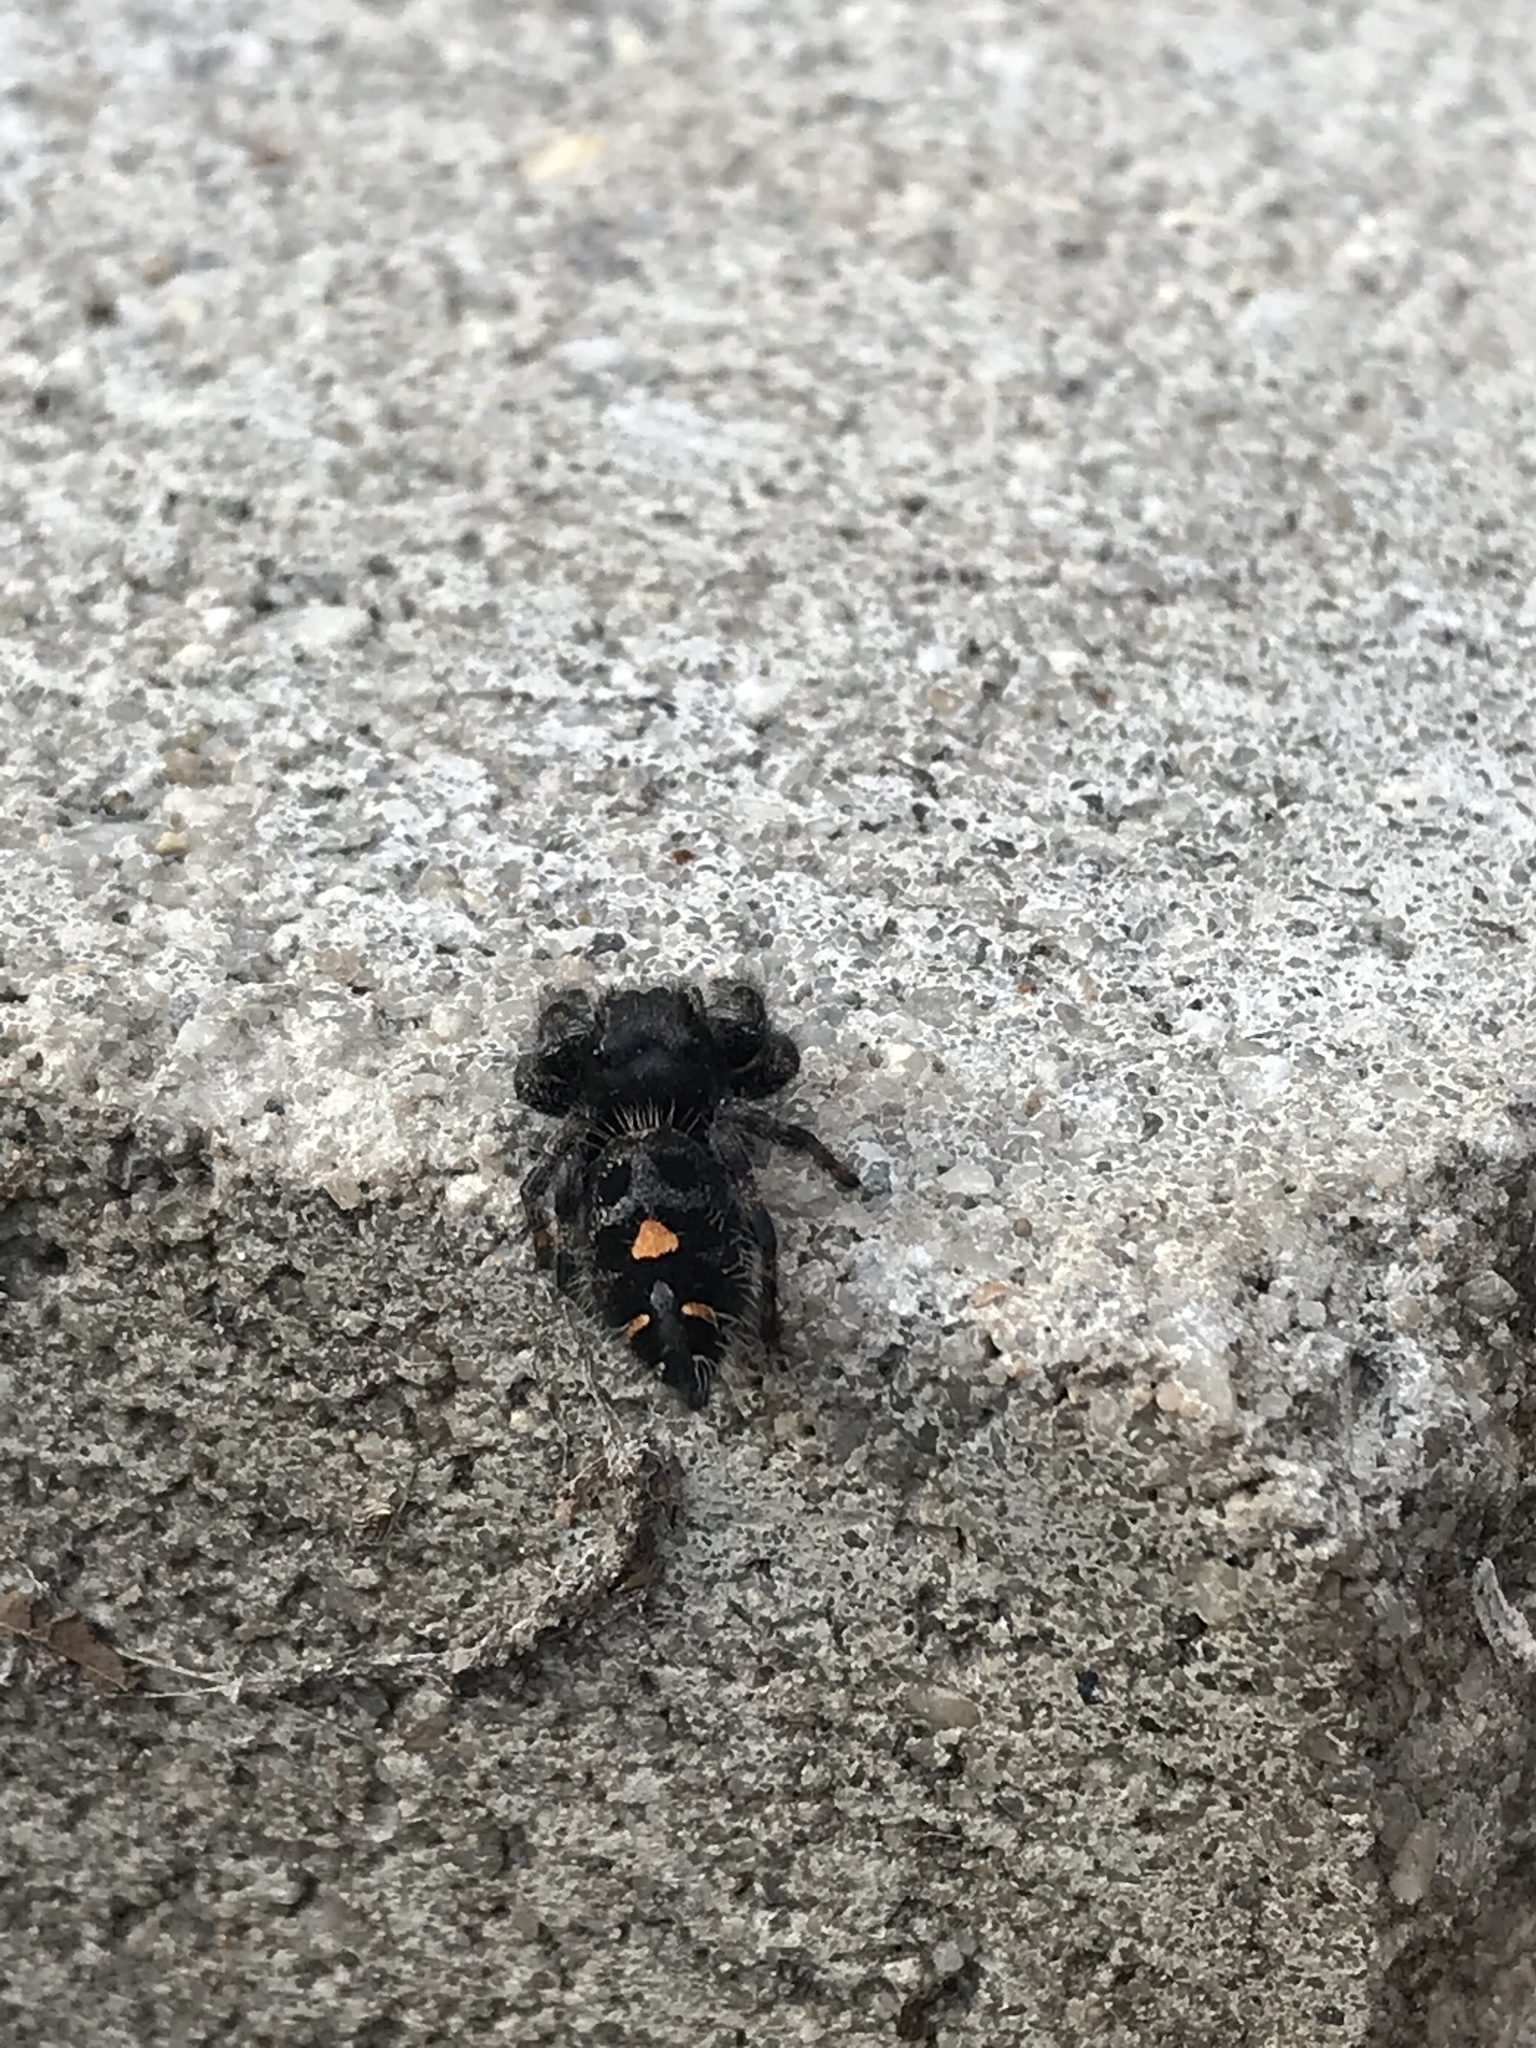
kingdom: Animalia
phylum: Arthropoda
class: Arachnida
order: Araneae
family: Salticidae
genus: Phidippus
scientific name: Phidippus audax
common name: Bold jumper
